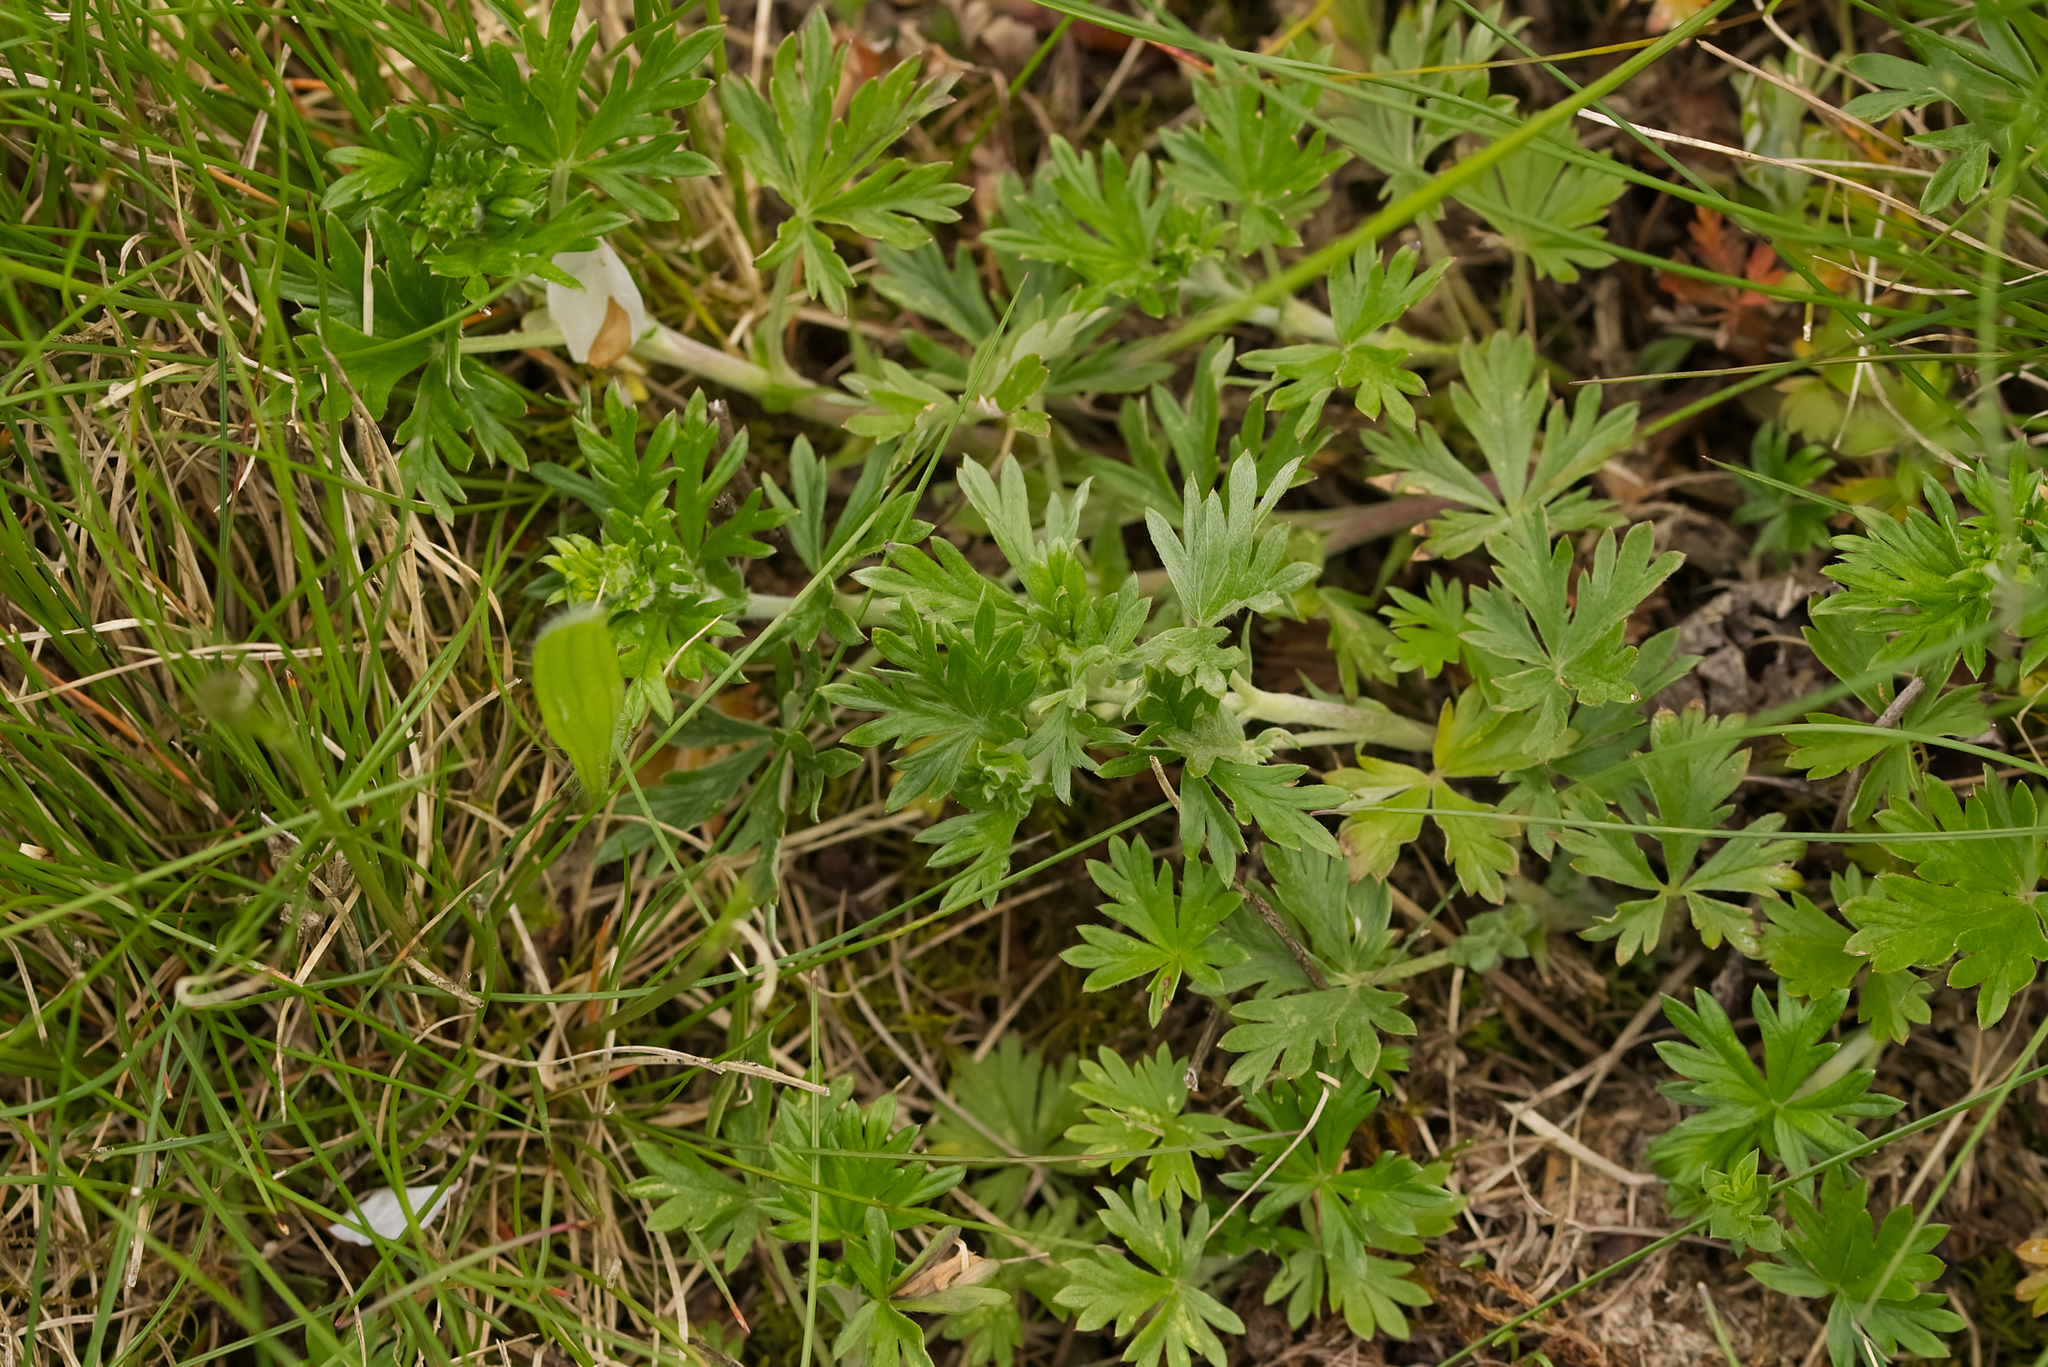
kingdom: Plantae
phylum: Tracheophyta
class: Magnoliopsida
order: Rosales
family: Rosaceae
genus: Potentilla
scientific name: Potentilla argentea
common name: Hoary cinquefoil
